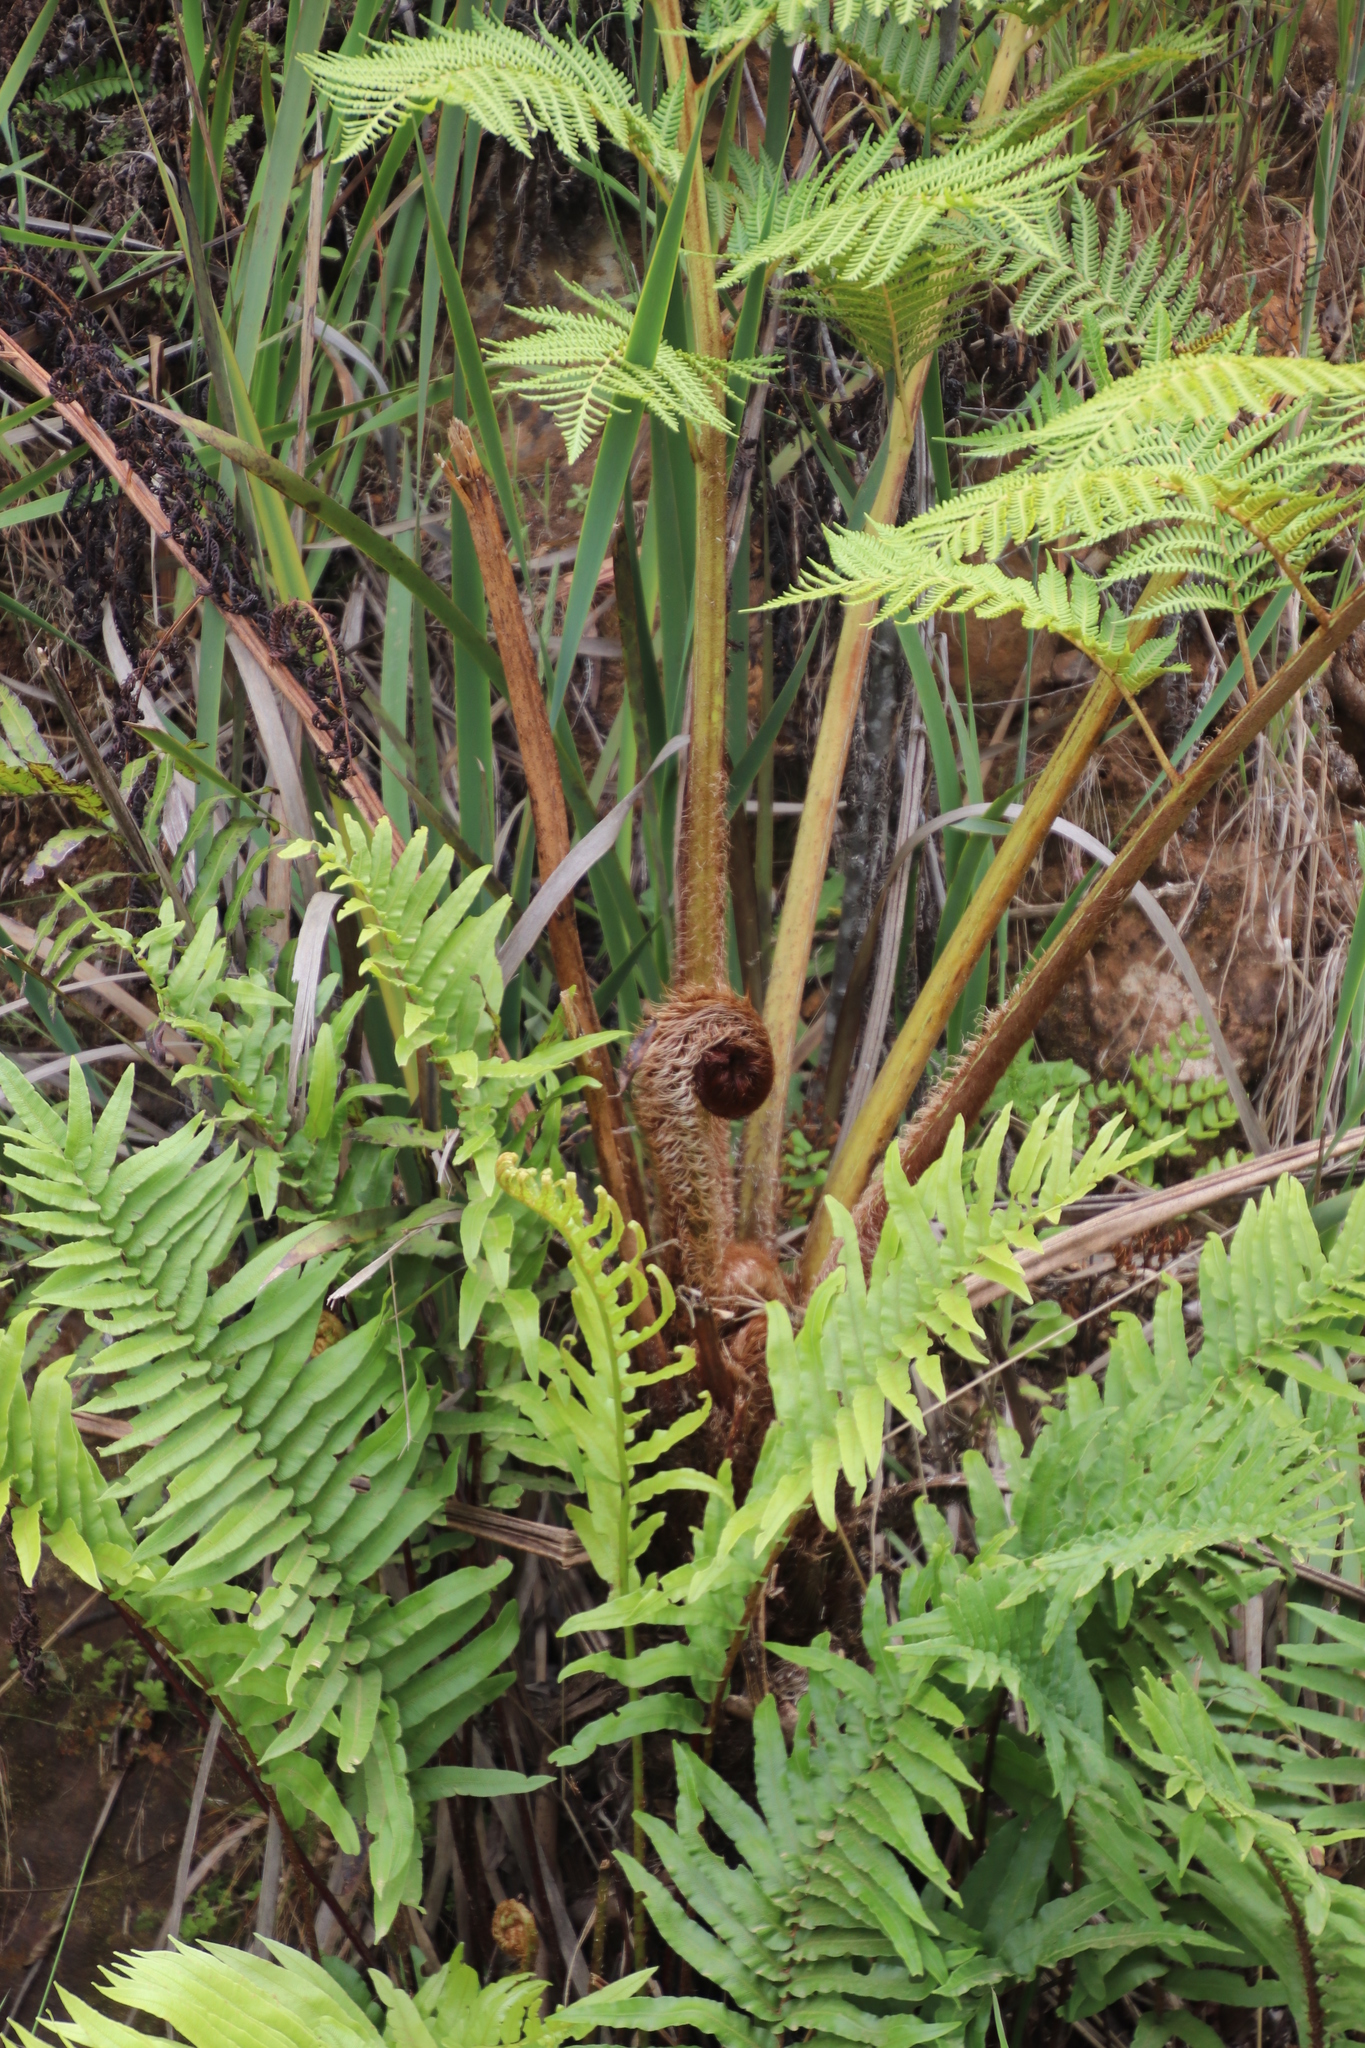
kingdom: Plantae
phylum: Tracheophyta
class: Polypodiopsida
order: Cyatheales
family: Cyatheaceae
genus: Sphaeropteris
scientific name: Sphaeropteris cooperi
